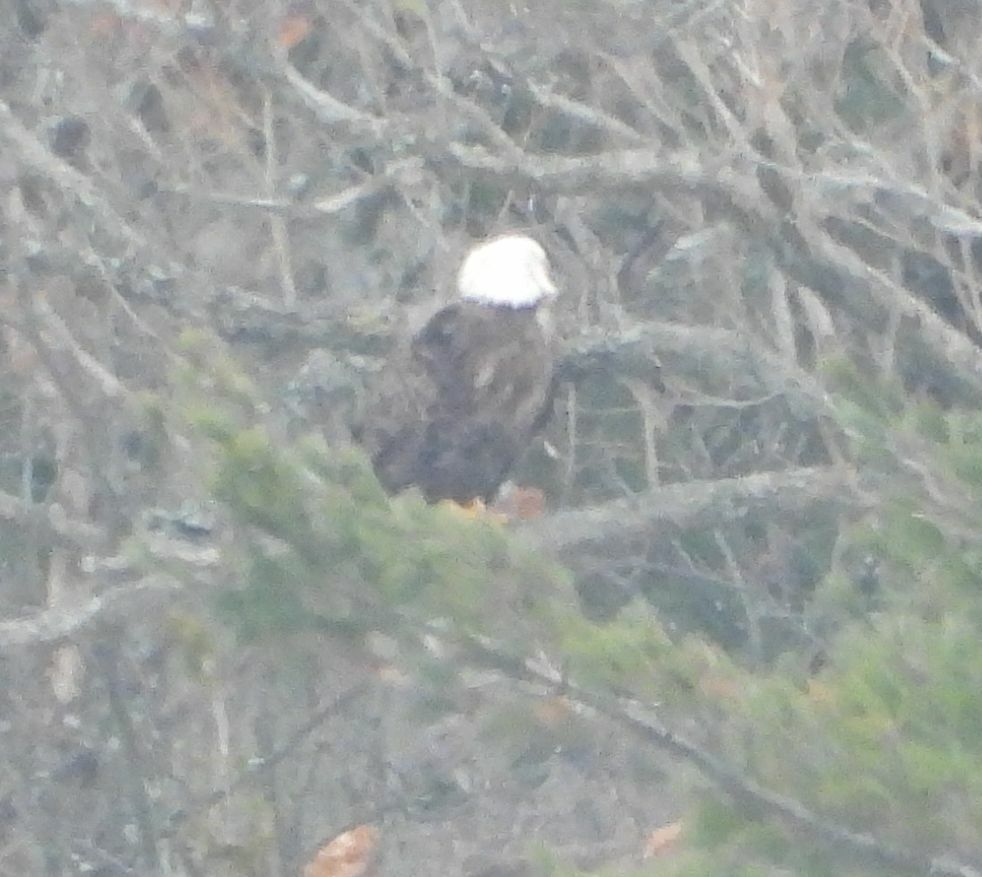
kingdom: Animalia
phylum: Chordata
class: Aves
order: Accipitriformes
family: Accipitridae
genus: Haliaeetus
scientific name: Haliaeetus leucocephalus
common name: Bald eagle
